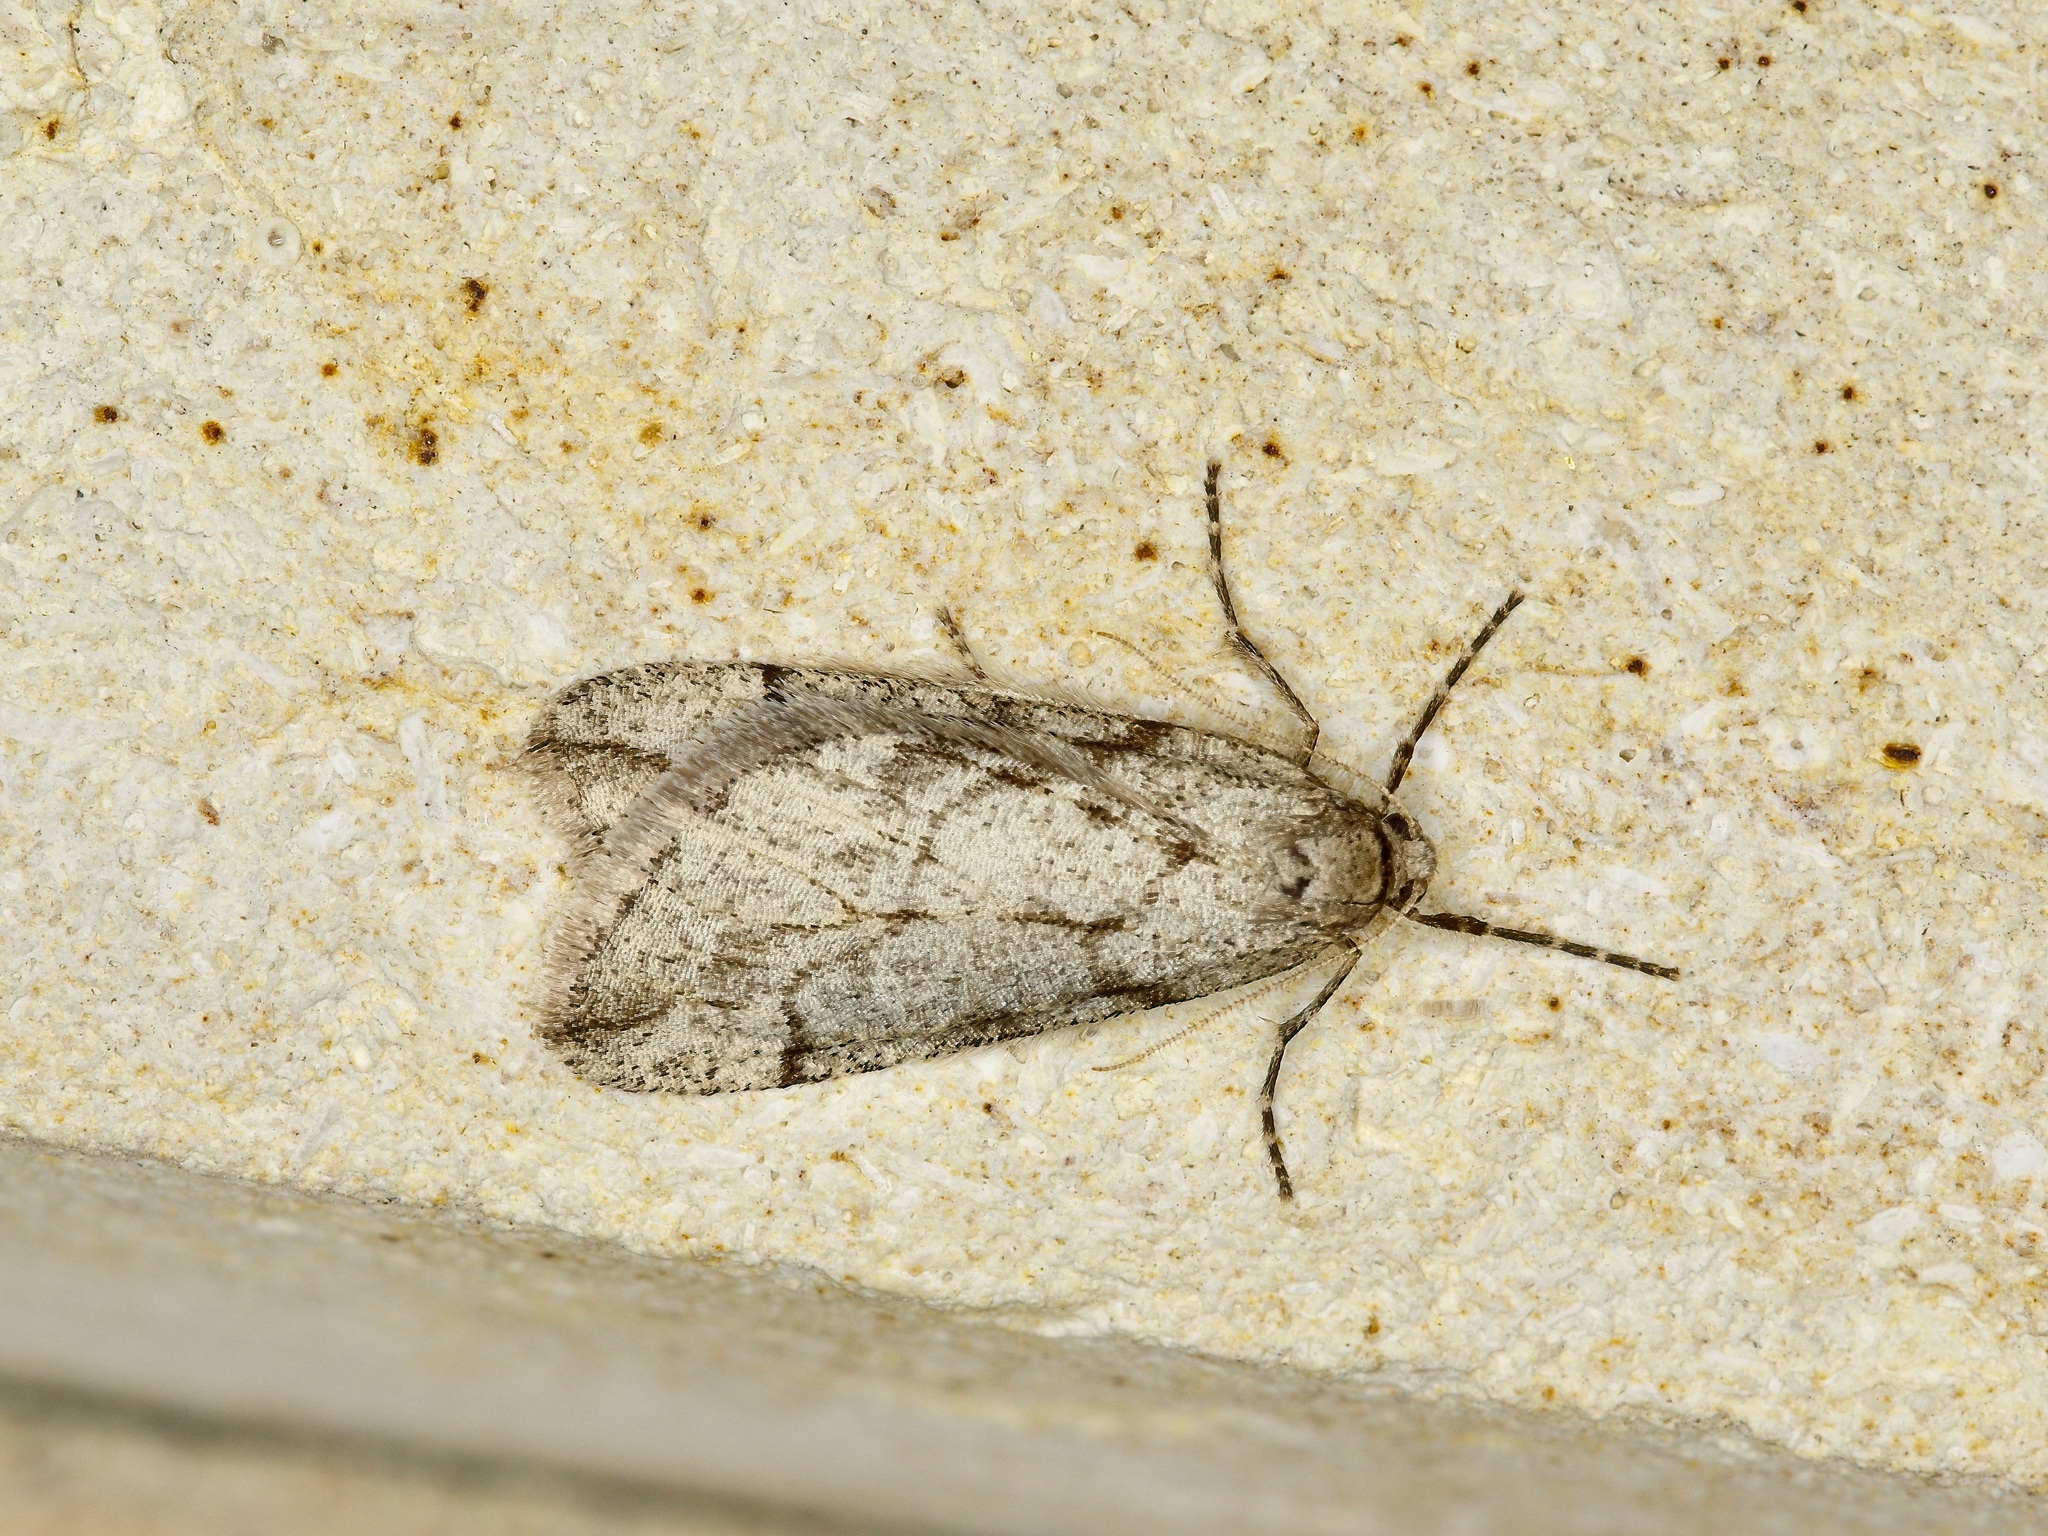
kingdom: Animalia
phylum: Arthropoda
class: Insecta
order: Lepidoptera
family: Geometridae
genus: Paleacrita
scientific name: Paleacrita vernata
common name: Spring cankerworm
